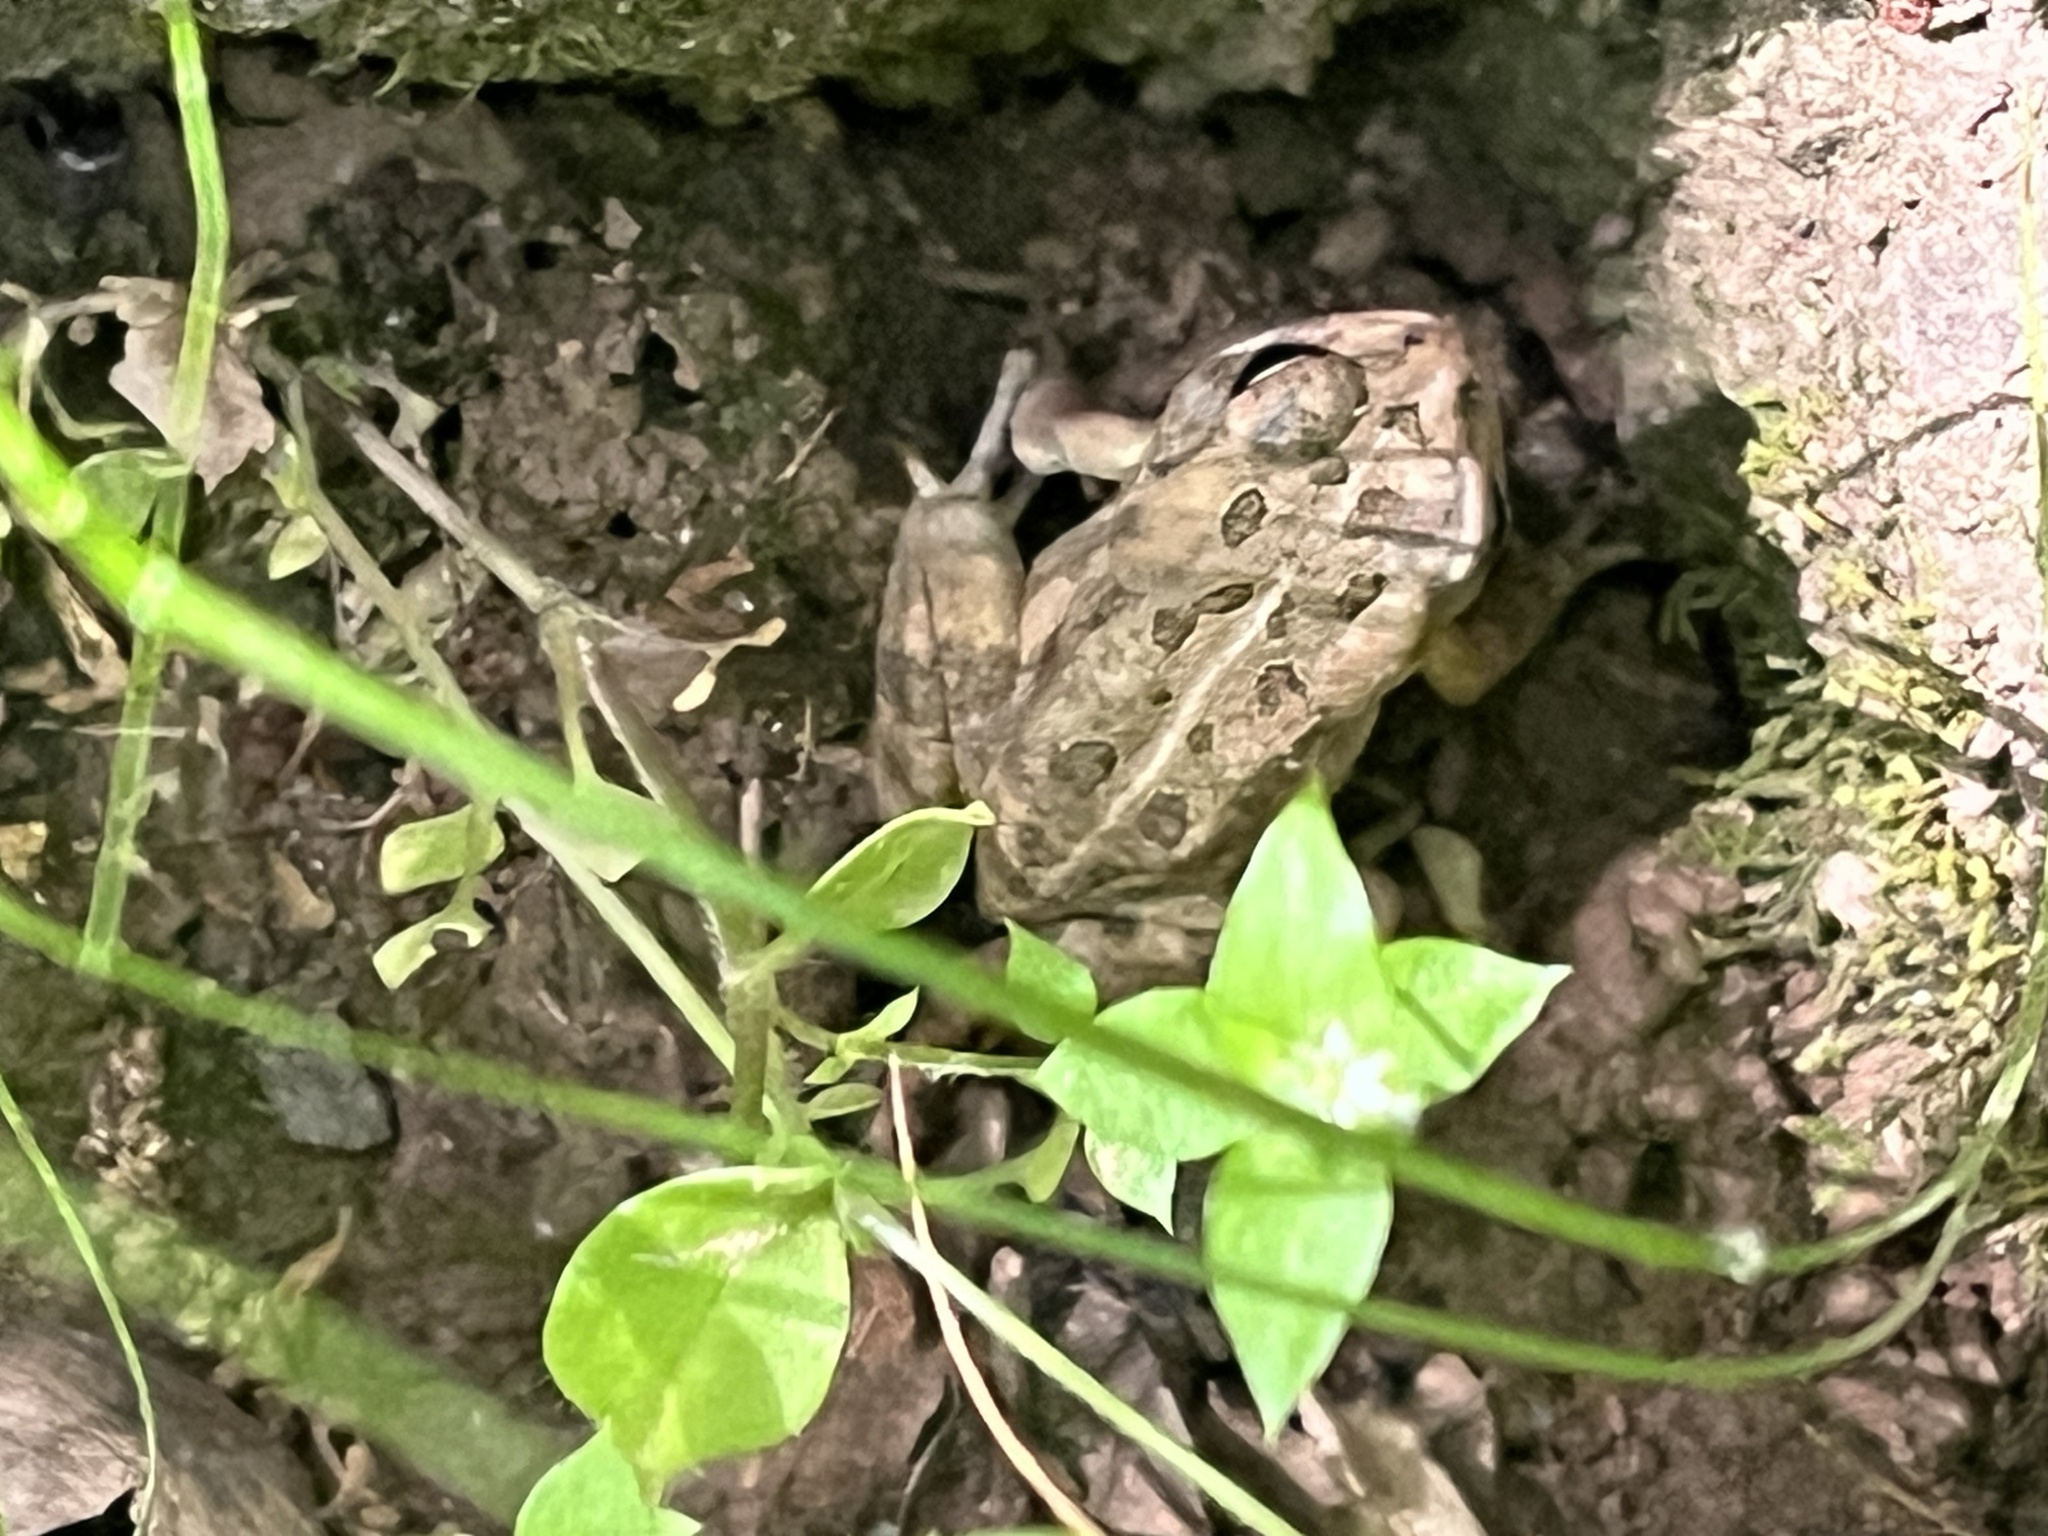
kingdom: Animalia
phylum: Chordata
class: Amphibia
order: Anura
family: Bufonidae
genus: Anaxyrus
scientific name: Anaxyrus fowleri
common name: Fowler's toad
